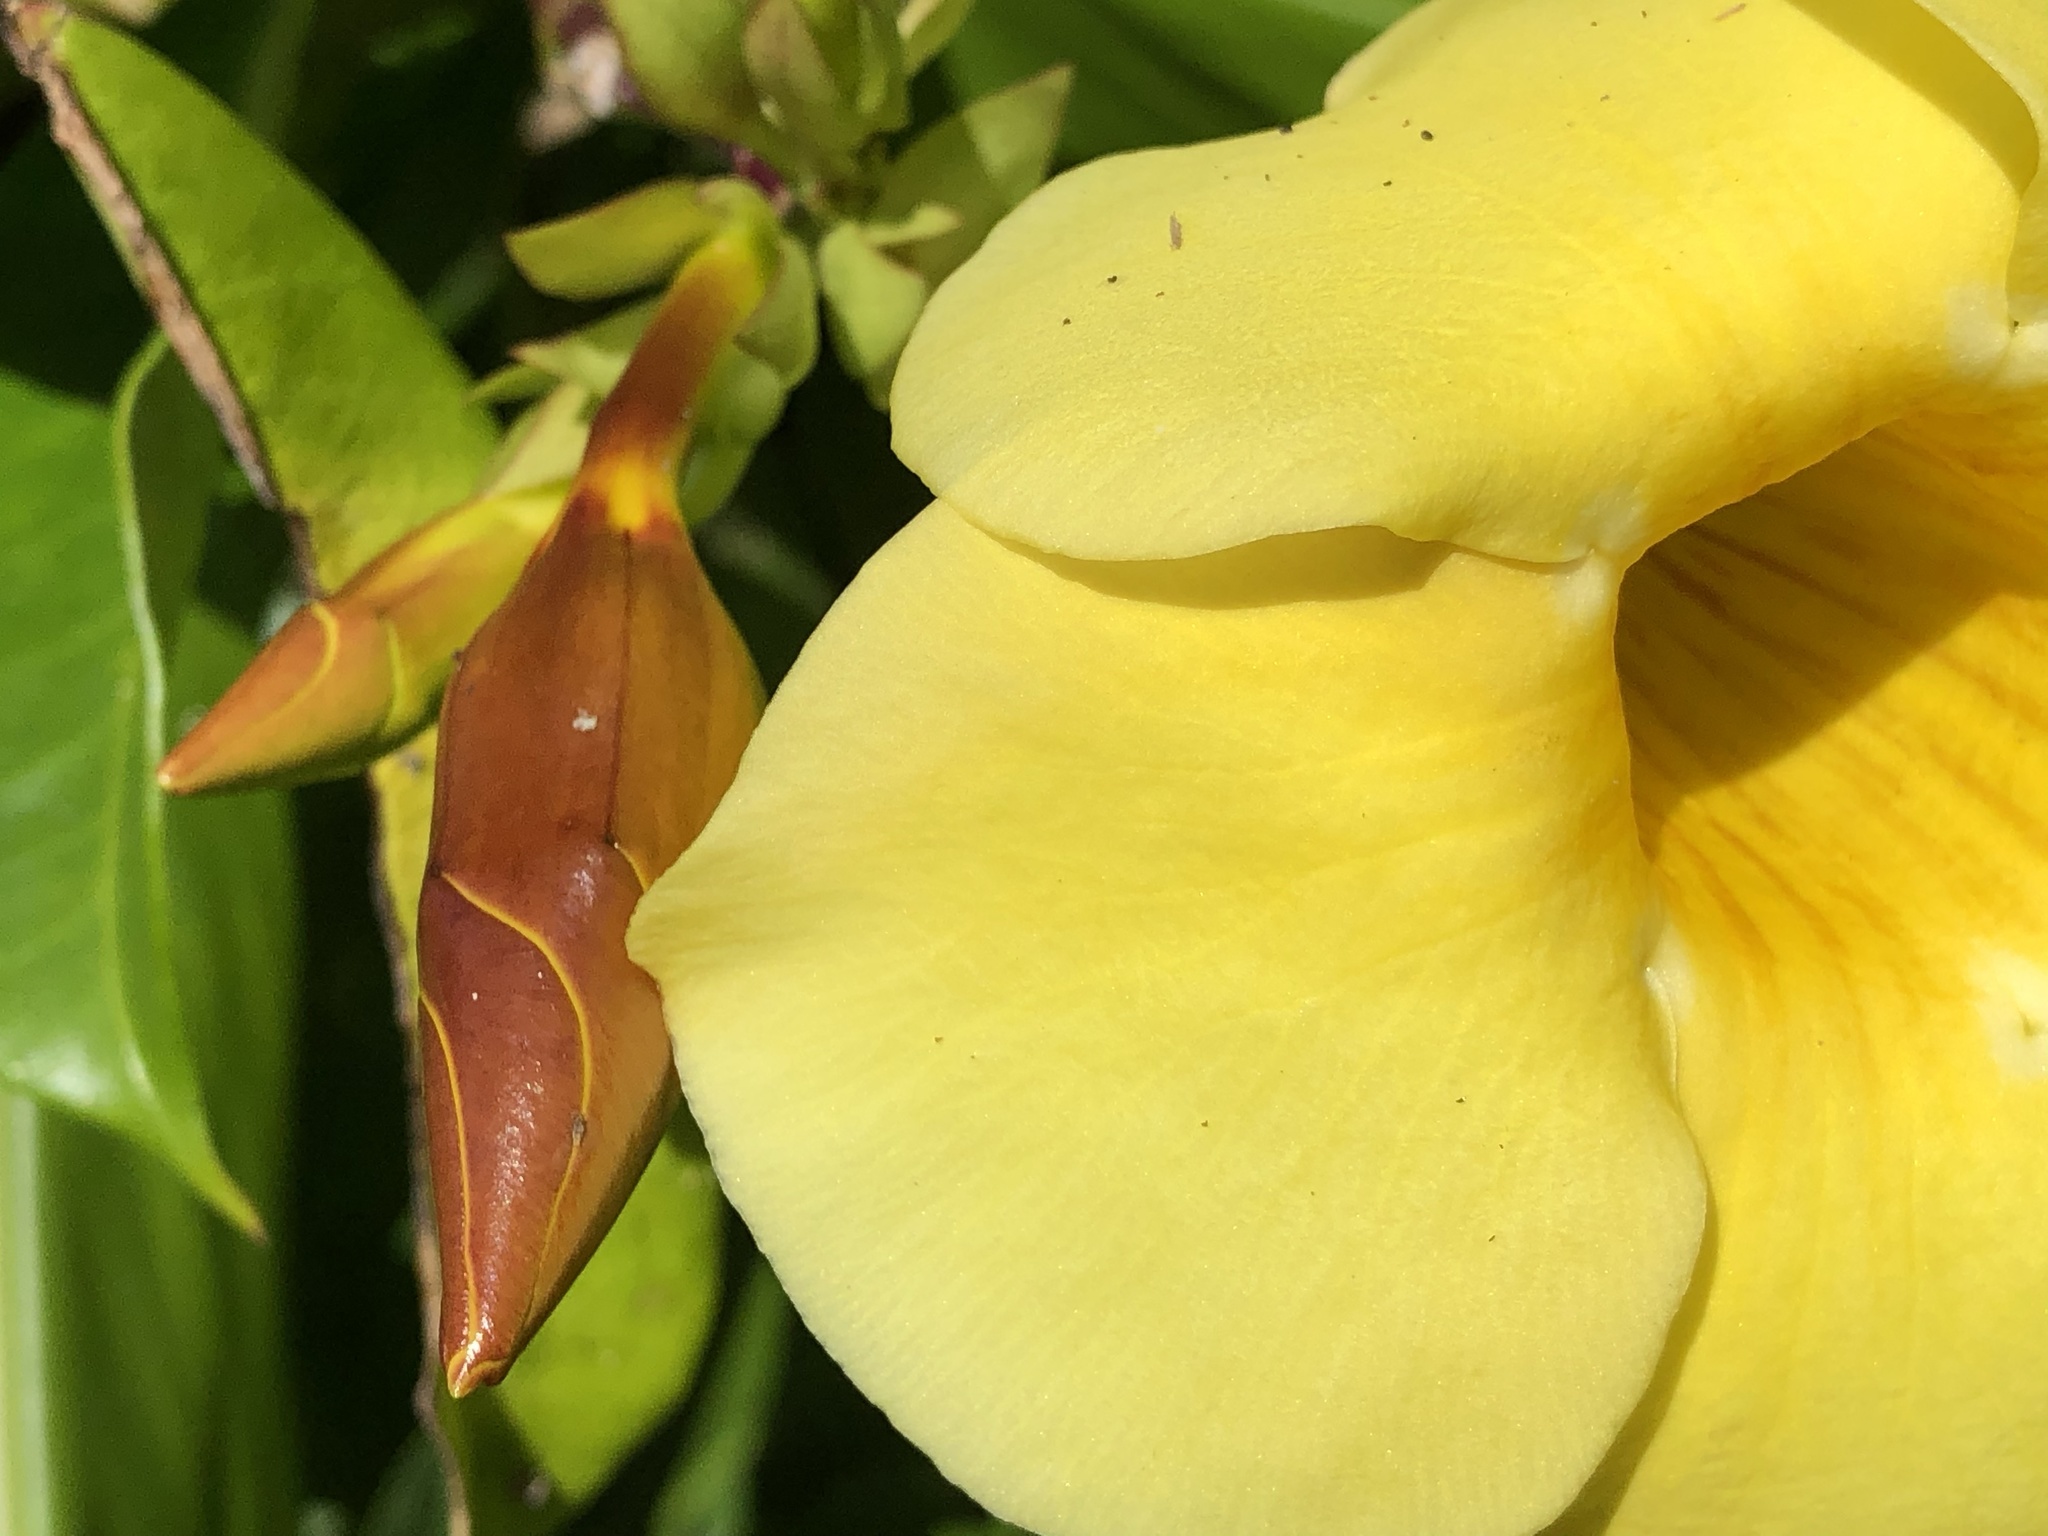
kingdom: Plantae
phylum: Tracheophyta
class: Magnoliopsida
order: Gentianales
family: Apocynaceae
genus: Allamanda
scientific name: Allamanda cathartica
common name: Golden trumpet
